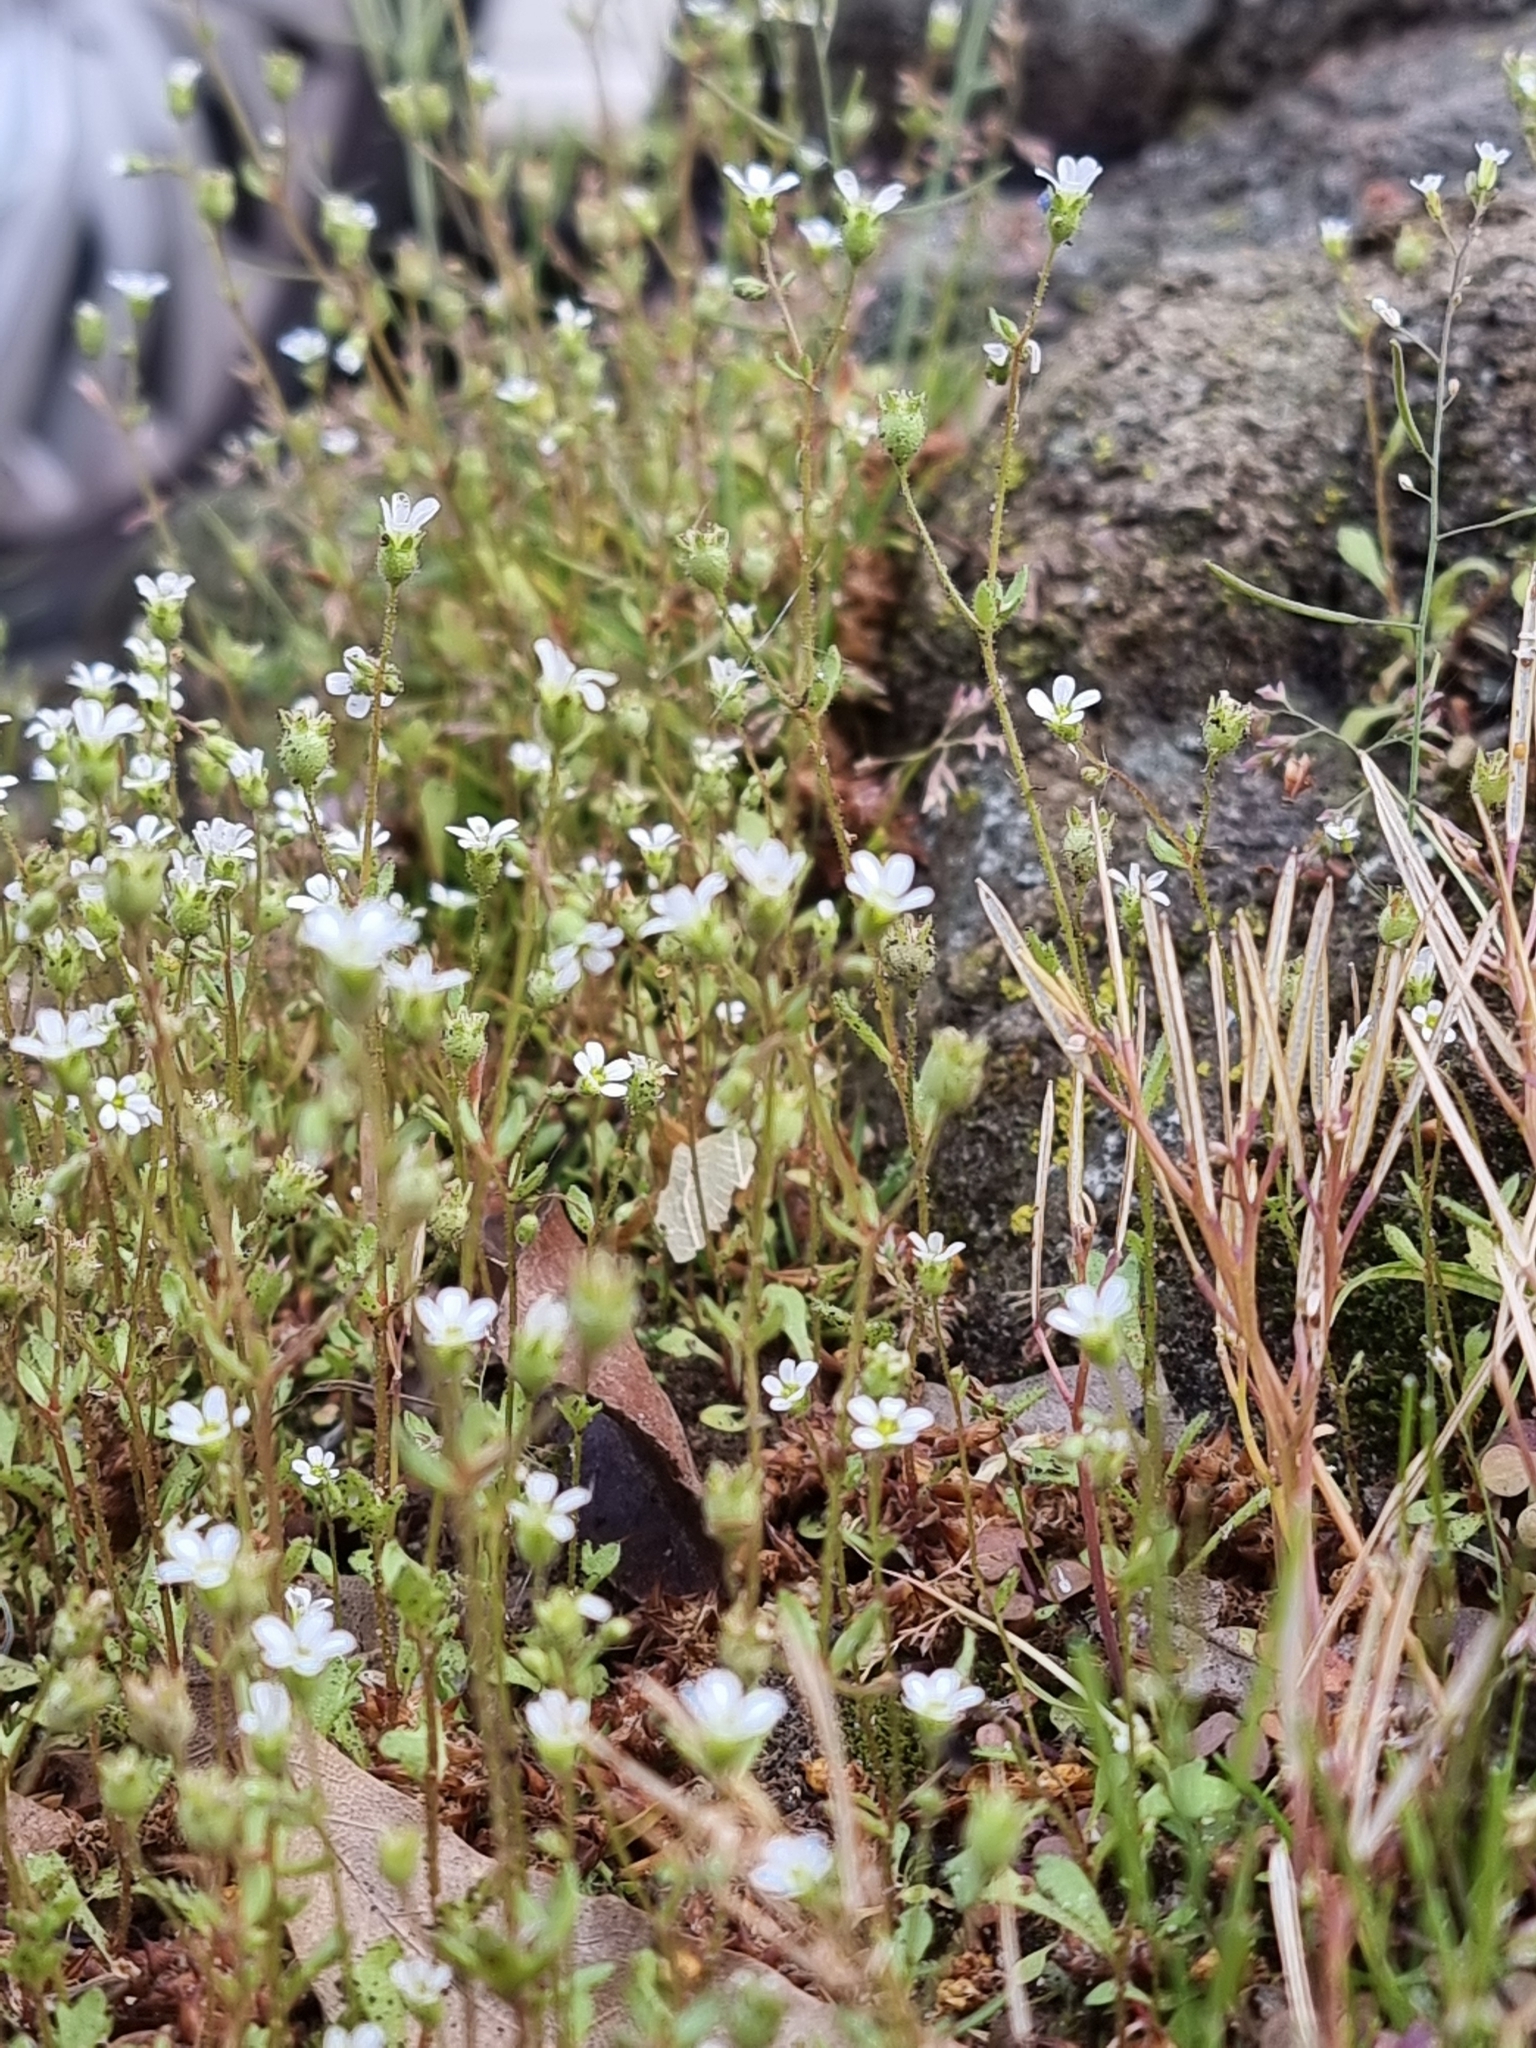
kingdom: Plantae
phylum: Tracheophyta
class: Magnoliopsida
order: Saxifragales
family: Saxifragaceae
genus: Saxifraga
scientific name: Saxifraga tridactylites
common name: Rue-leaved saxifrage
